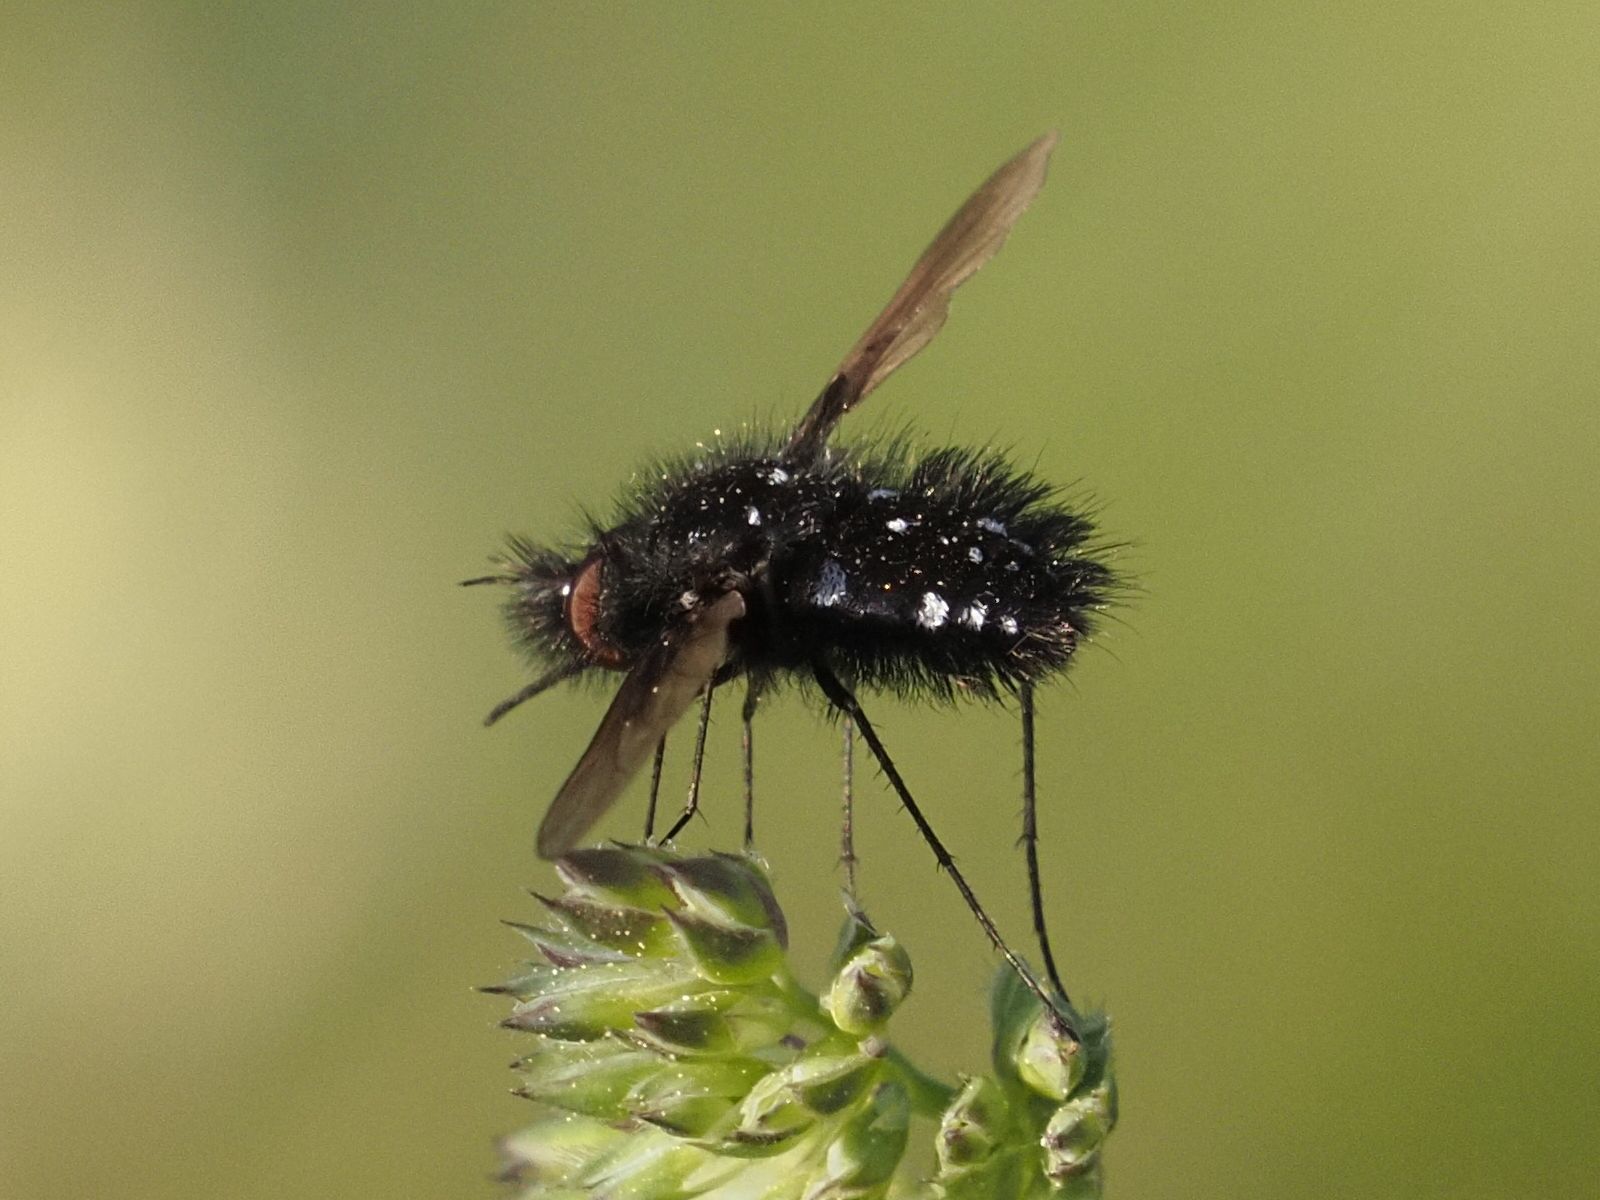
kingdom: Animalia
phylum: Arthropoda
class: Insecta
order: Diptera
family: Bombyliidae
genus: Bombylella
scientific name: Bombylella atra
